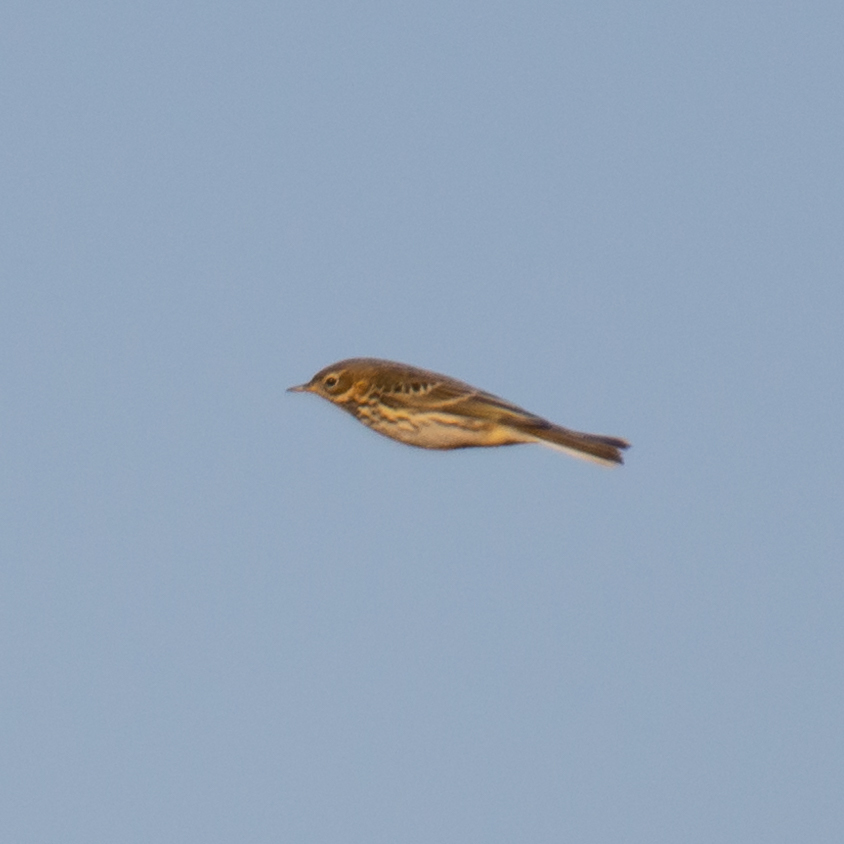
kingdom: Animalia
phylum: Chordata
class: Aves
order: Passeriformes
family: Motacillidae
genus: Anthus
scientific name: Anthus pratensis
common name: Meadow pipit
